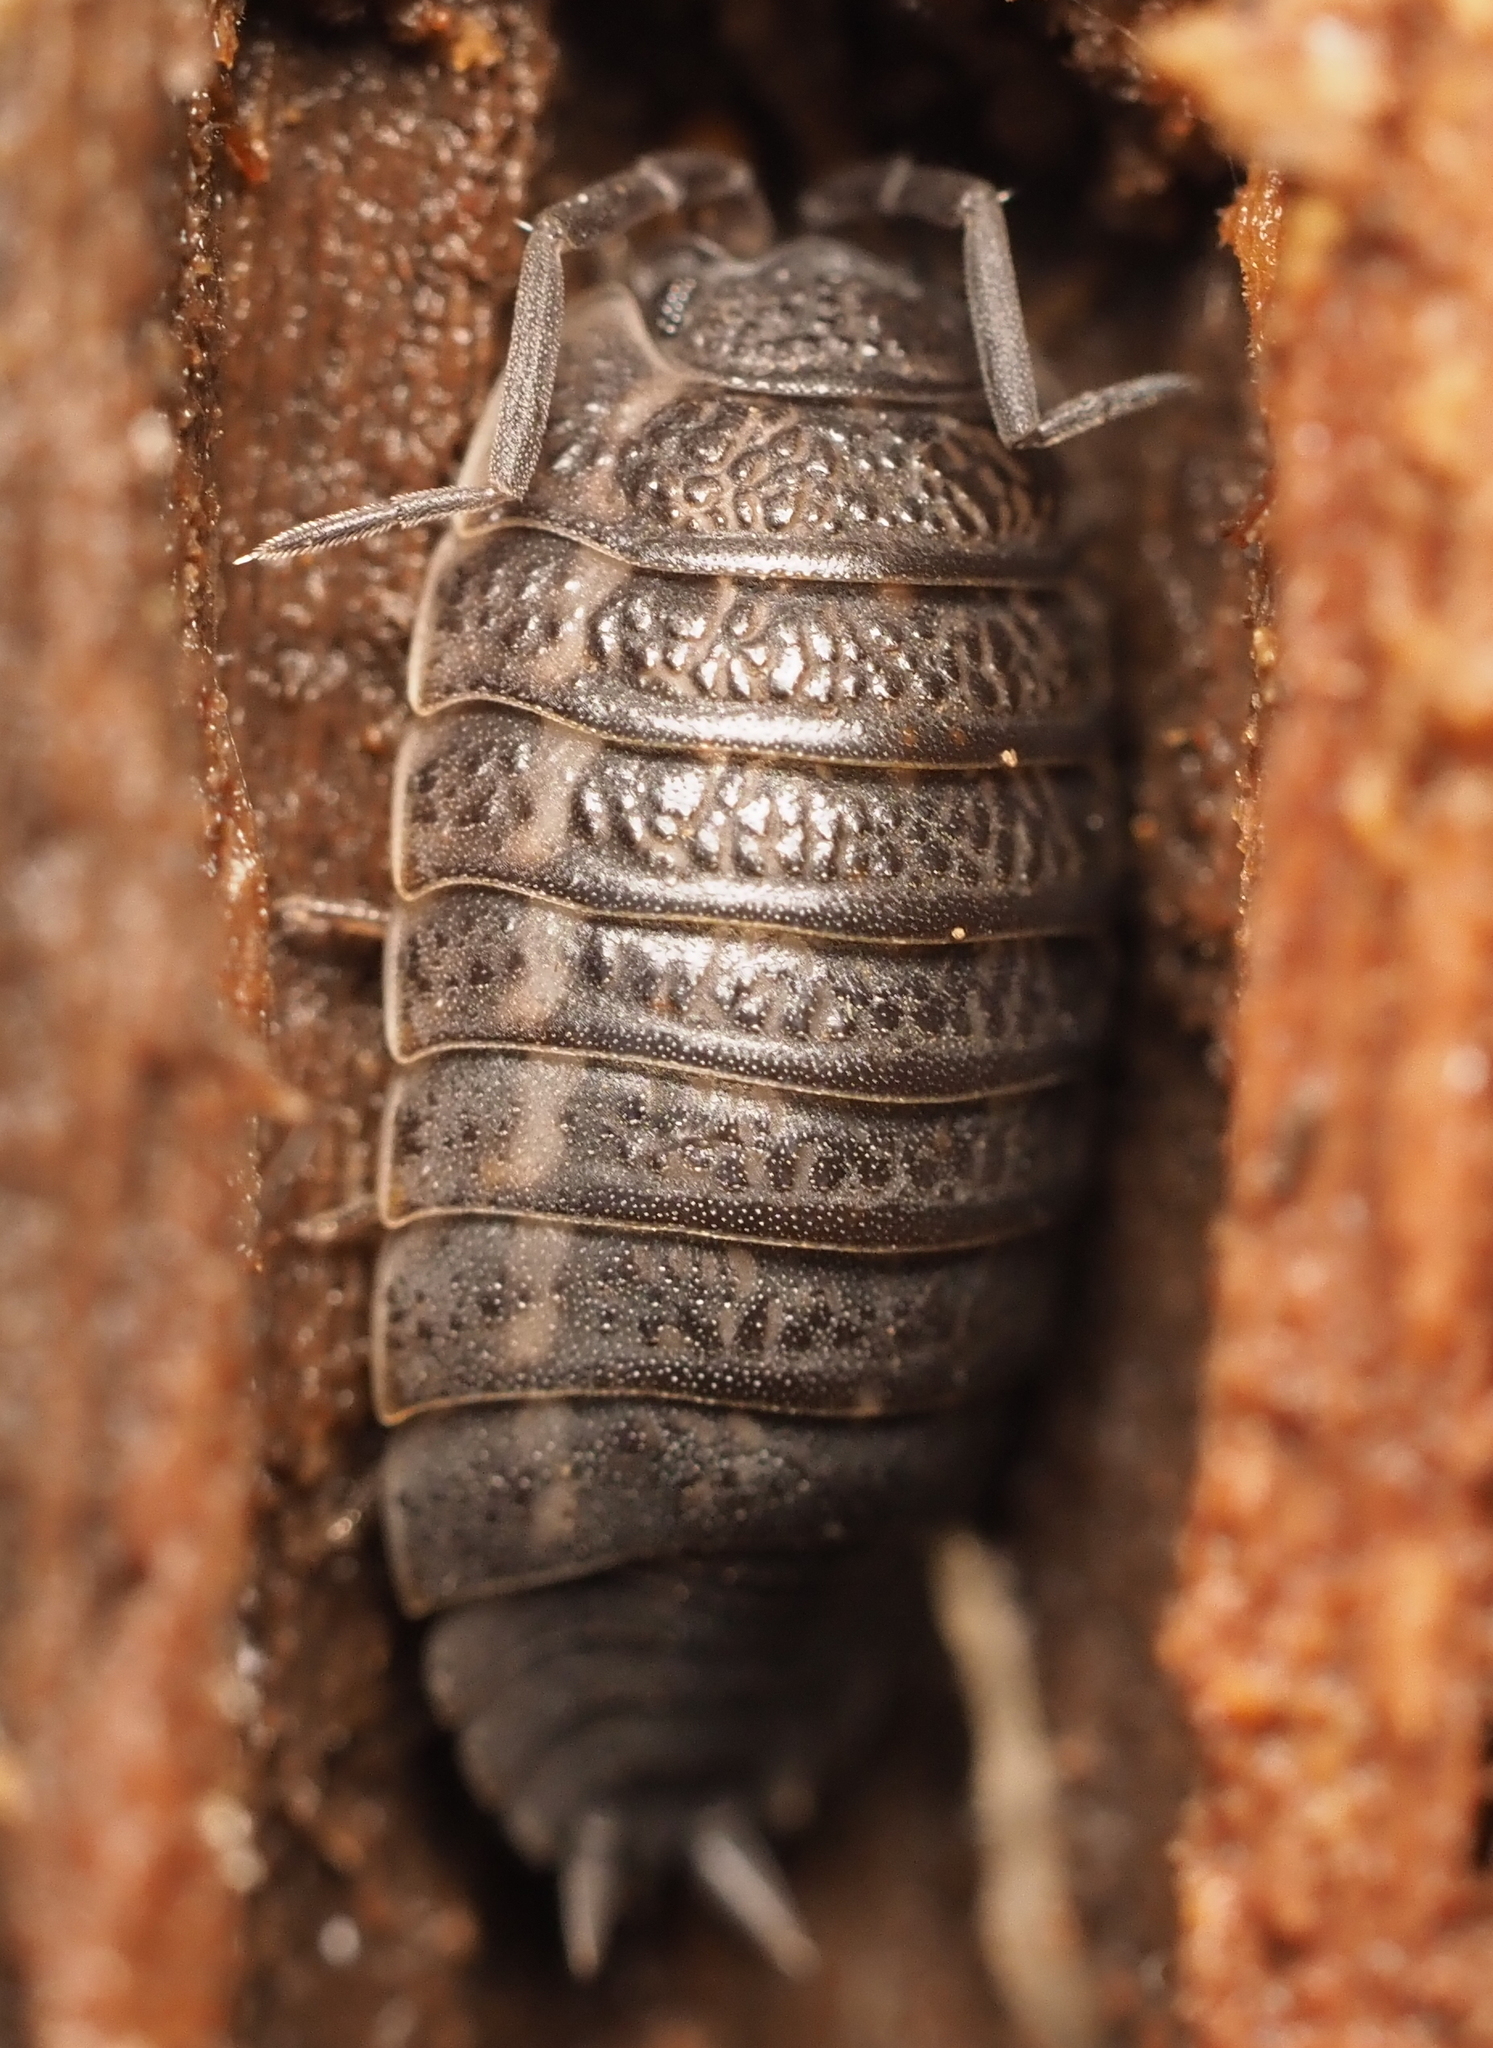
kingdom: Animalia
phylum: Arthropoda
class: Malacostraca
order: Isopoda
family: Trachelipodidae
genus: Trachelipus
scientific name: Trachelipus rathkii
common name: Isopod
